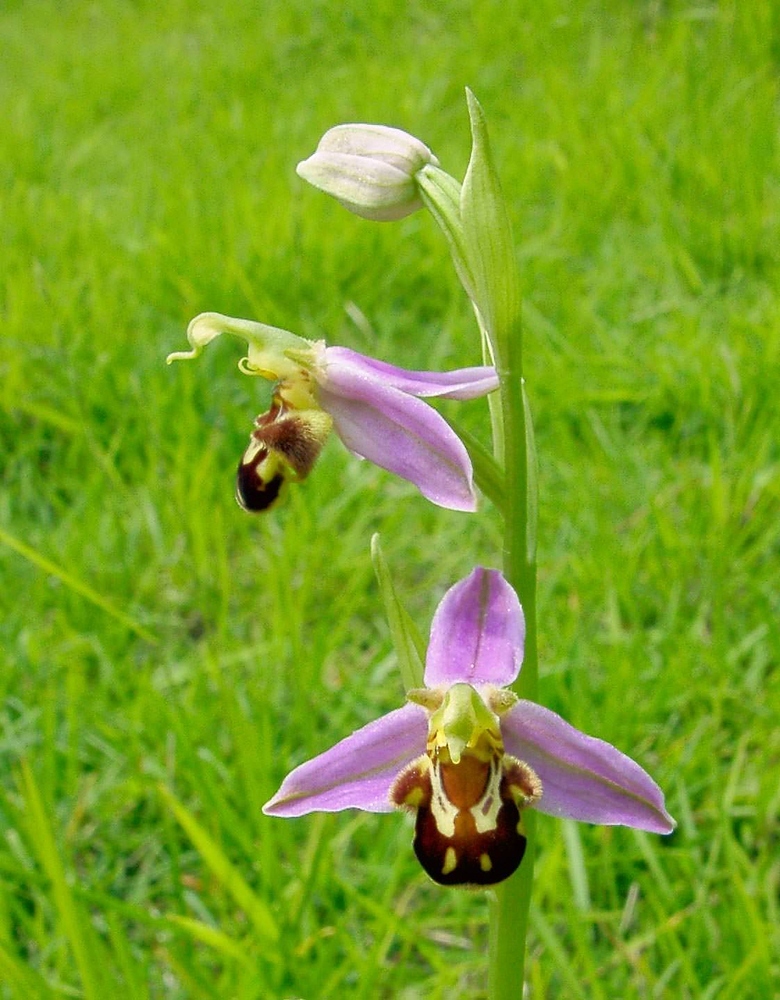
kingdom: Plantae
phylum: Tracheophyta
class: Liliopsida
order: Asparagales
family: Orchidaceae
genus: Ophrys
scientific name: Ophrys apifera
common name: Bee orchid
